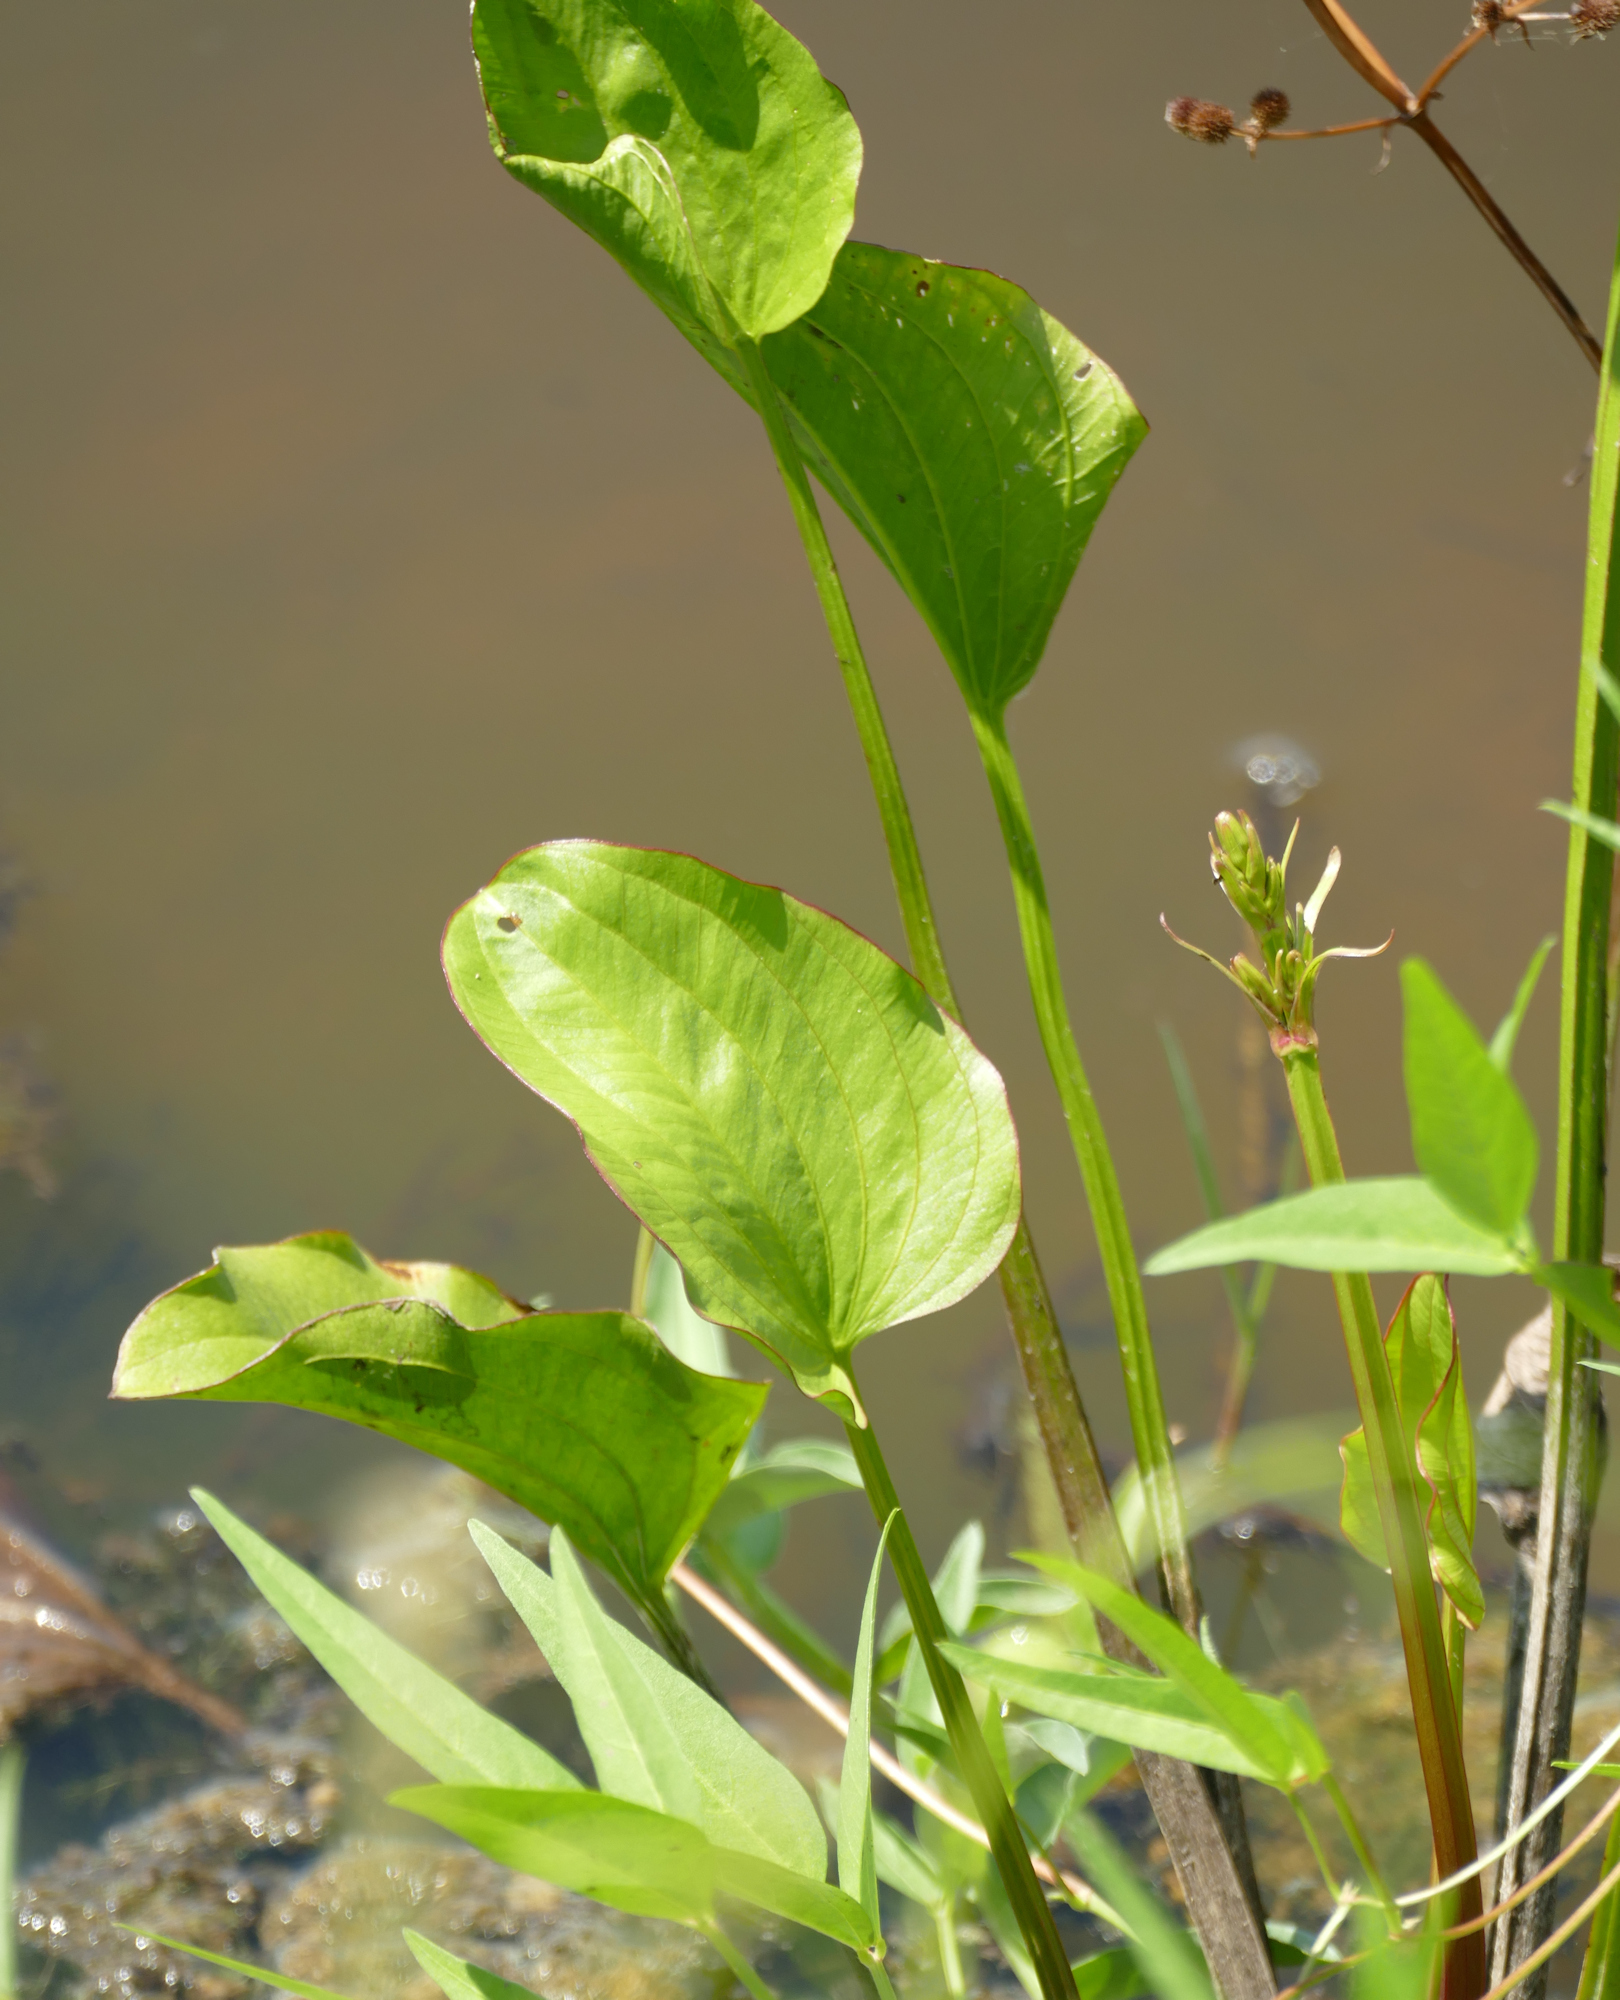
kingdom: Plantae
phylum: Tracheophyta
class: Liliopsida
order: Alismatales
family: Alismataceae
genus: Echinodorus
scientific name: Echinodorus berteroi
